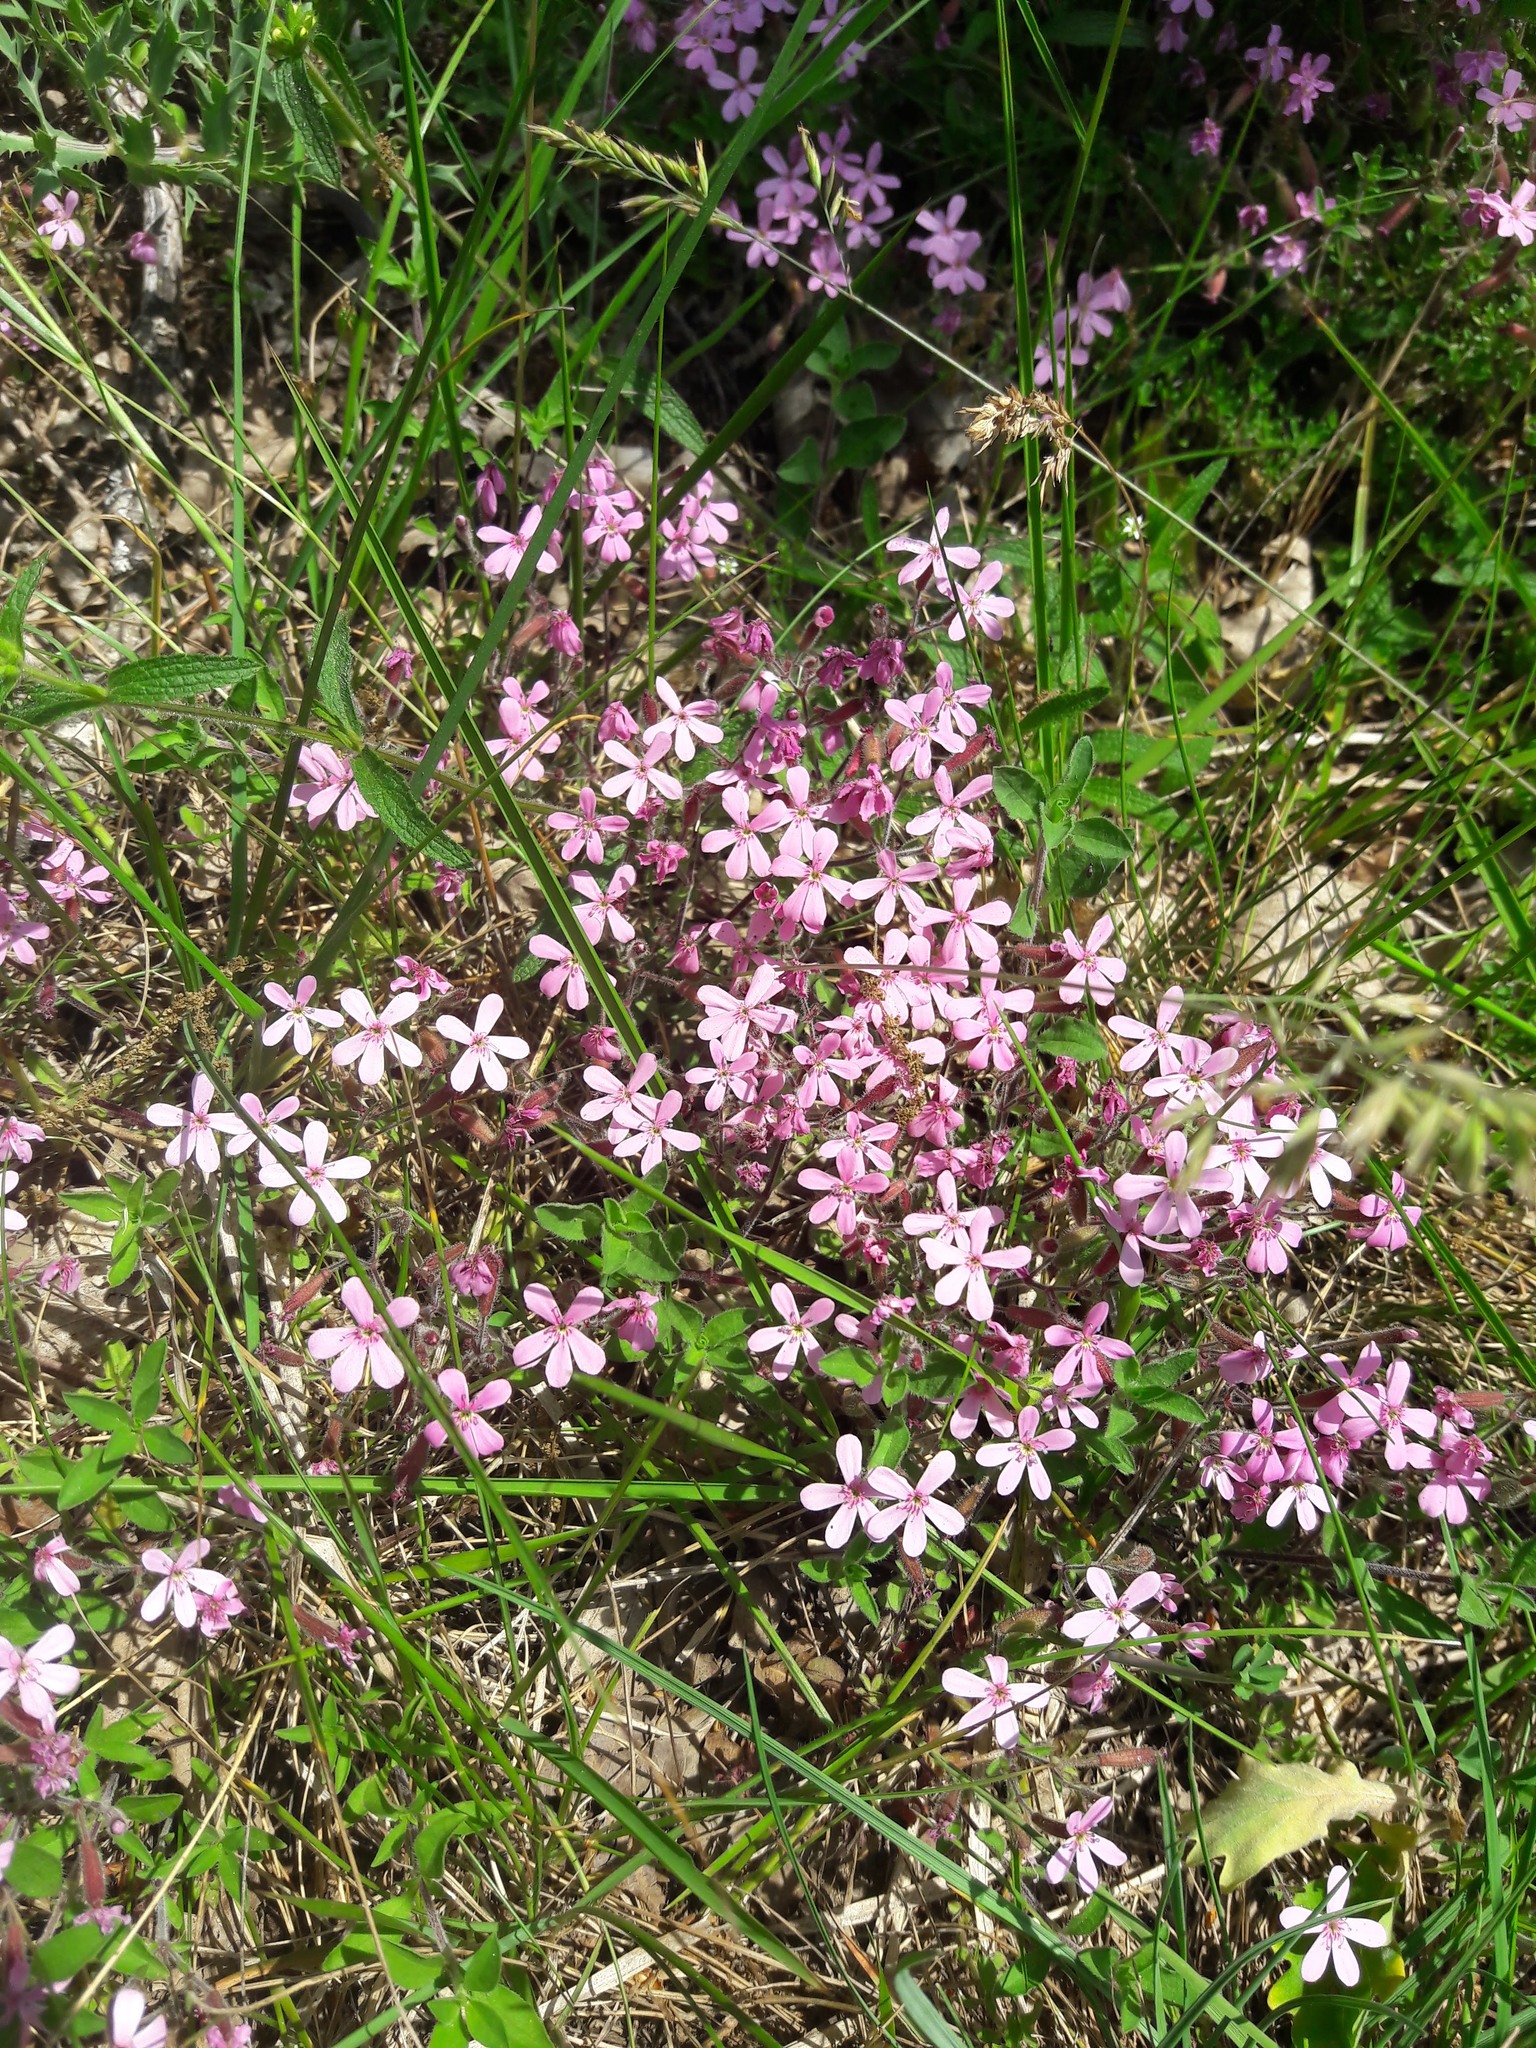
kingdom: Plantae
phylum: Tracheophyta
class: Magnoliopsida
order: Caryophyllales
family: Caryophyllaceae
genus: Saponaria
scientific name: Saponaria ocymoides
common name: Rock soapwort
